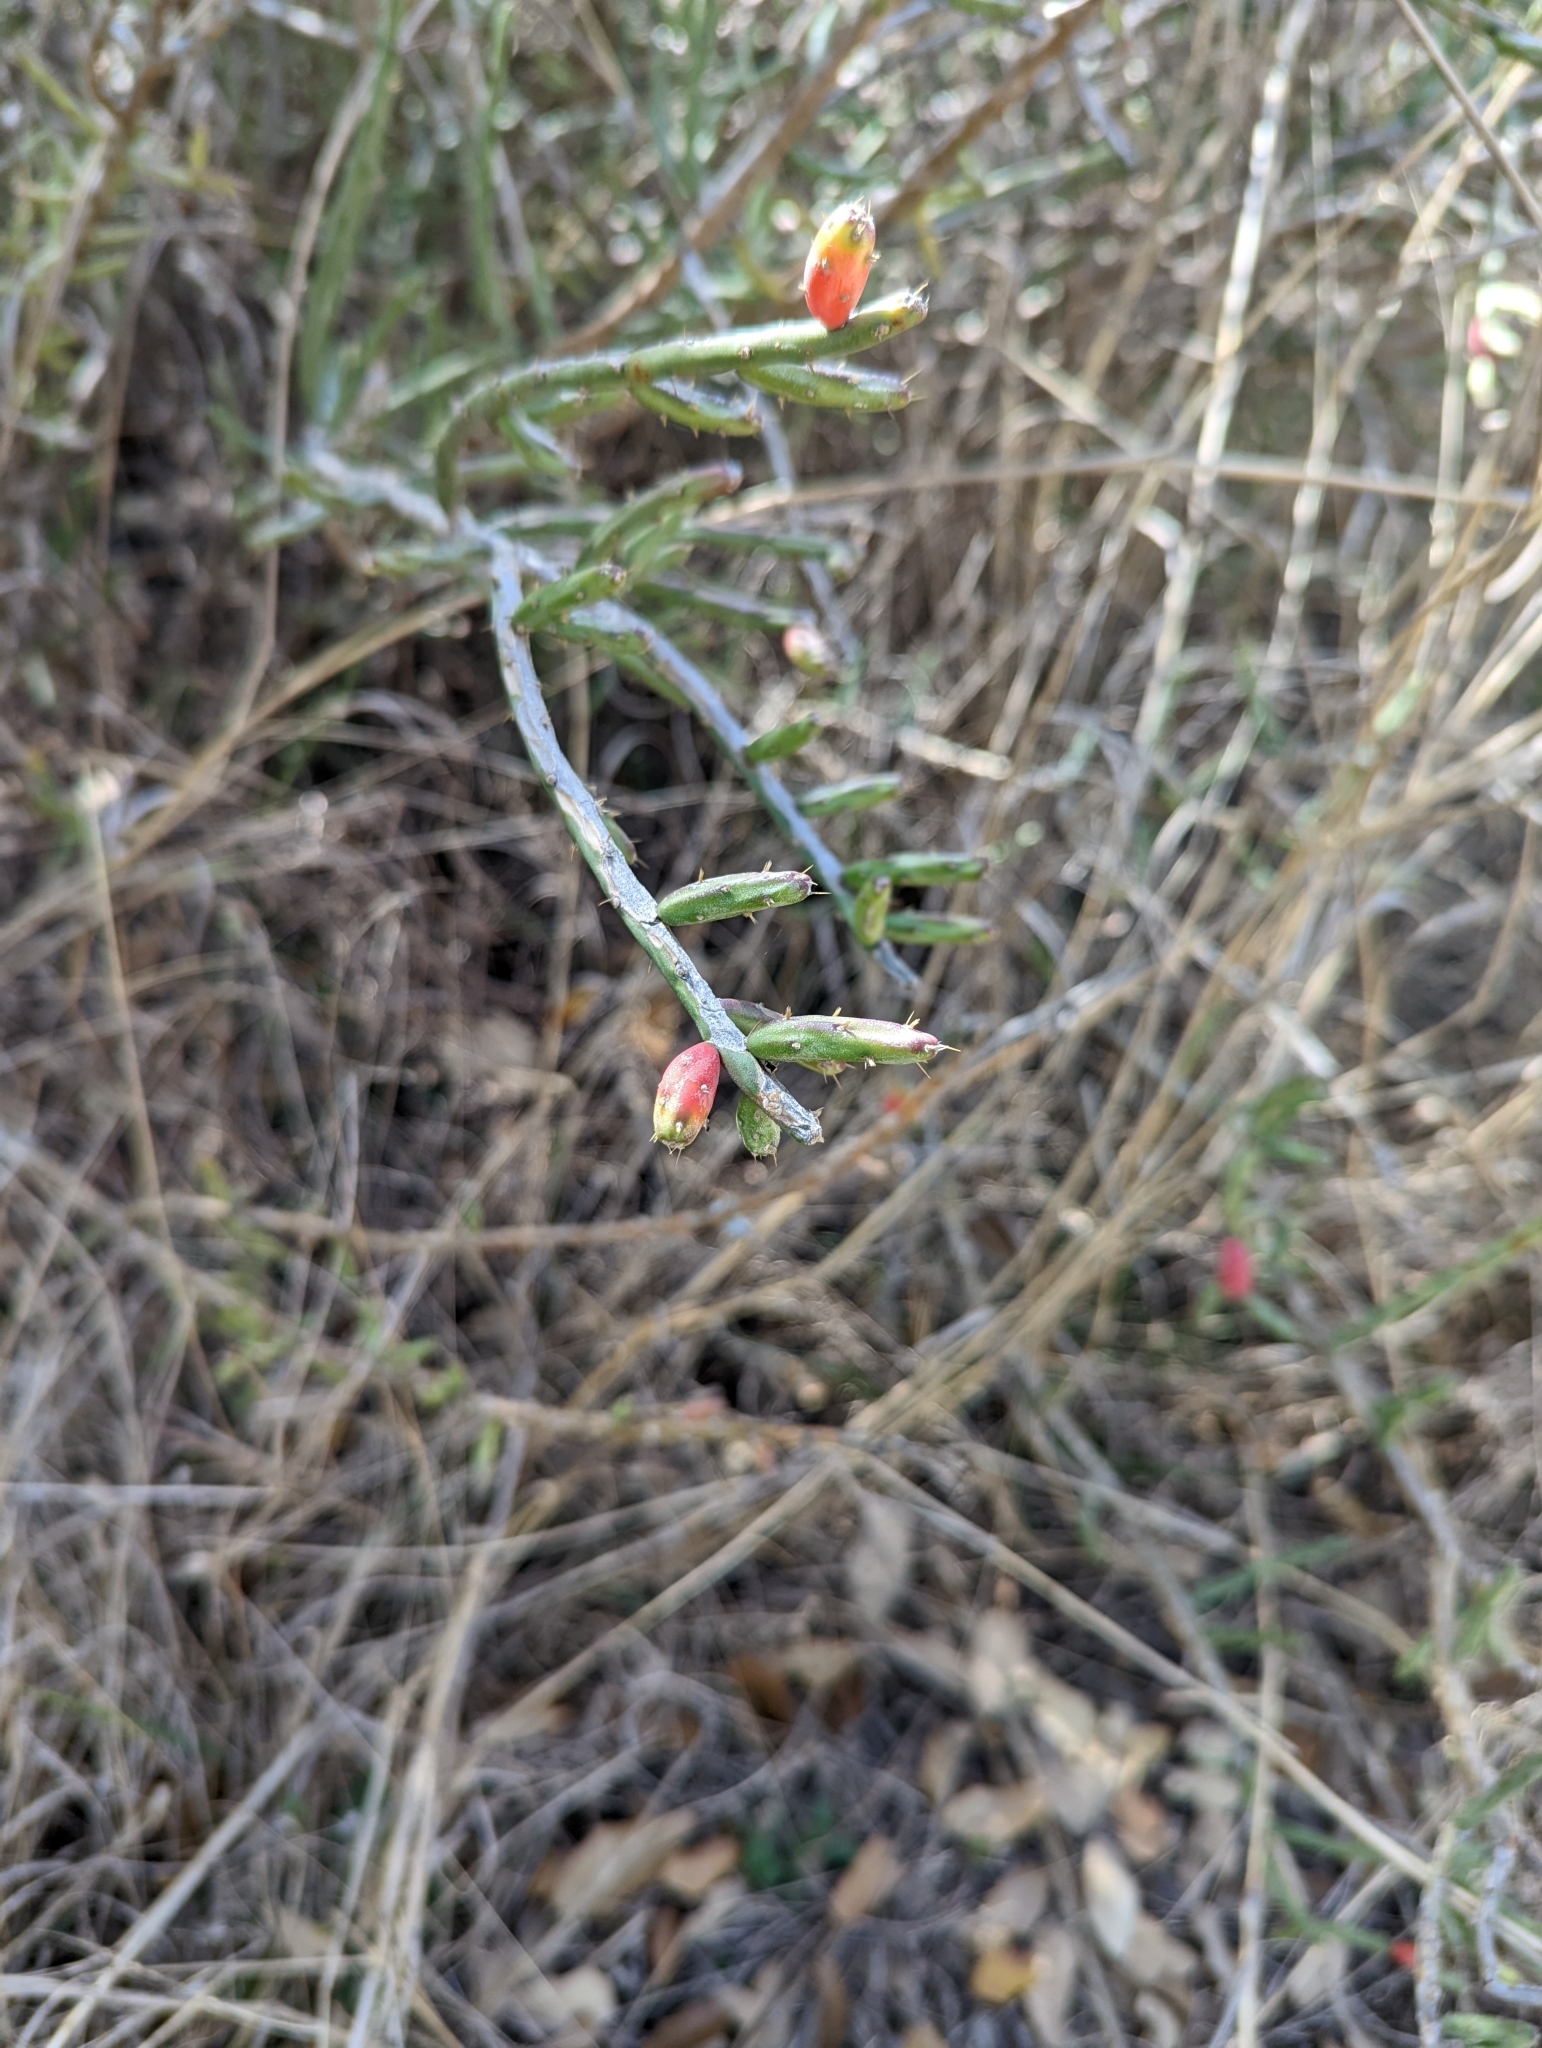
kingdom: Plantae
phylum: Tracheophyta
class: Magnoliopsida
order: Caryophyllales
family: Cactaceae
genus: Cylindropuntia
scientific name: Cylindropuntia leptocaulis
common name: Christmas cactus
